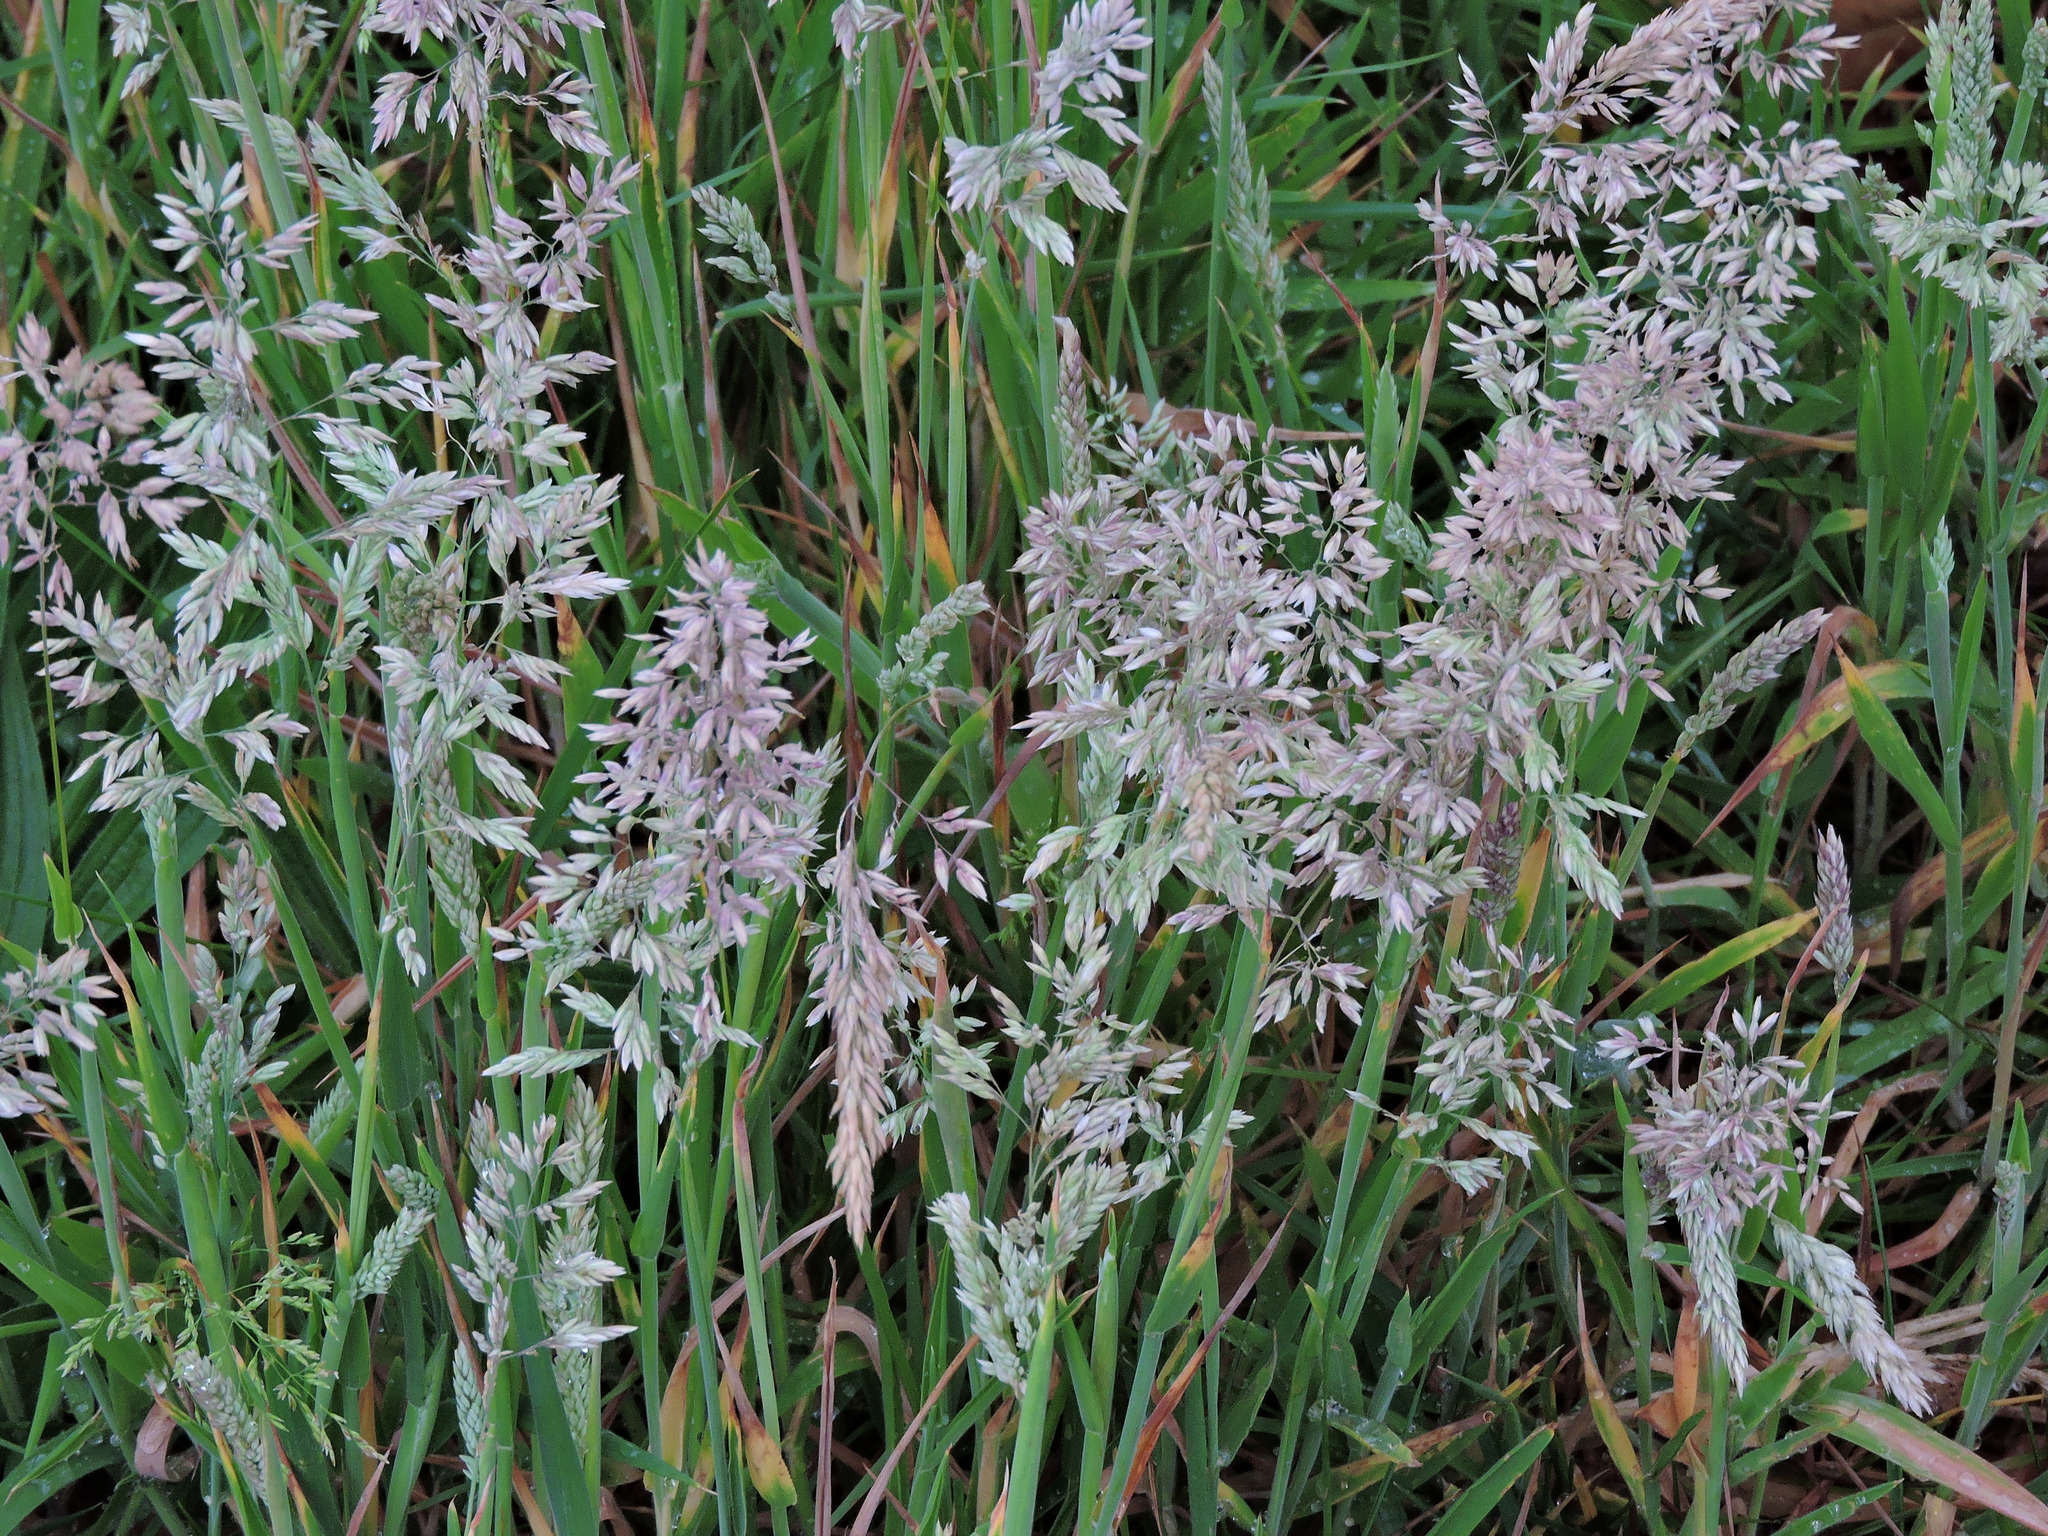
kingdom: Plantae
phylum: Tracheophyta
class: Liliopsida
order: Poales
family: Poaceae
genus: Holcus
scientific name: Holcus lanatus
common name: Yorkshire-fog
